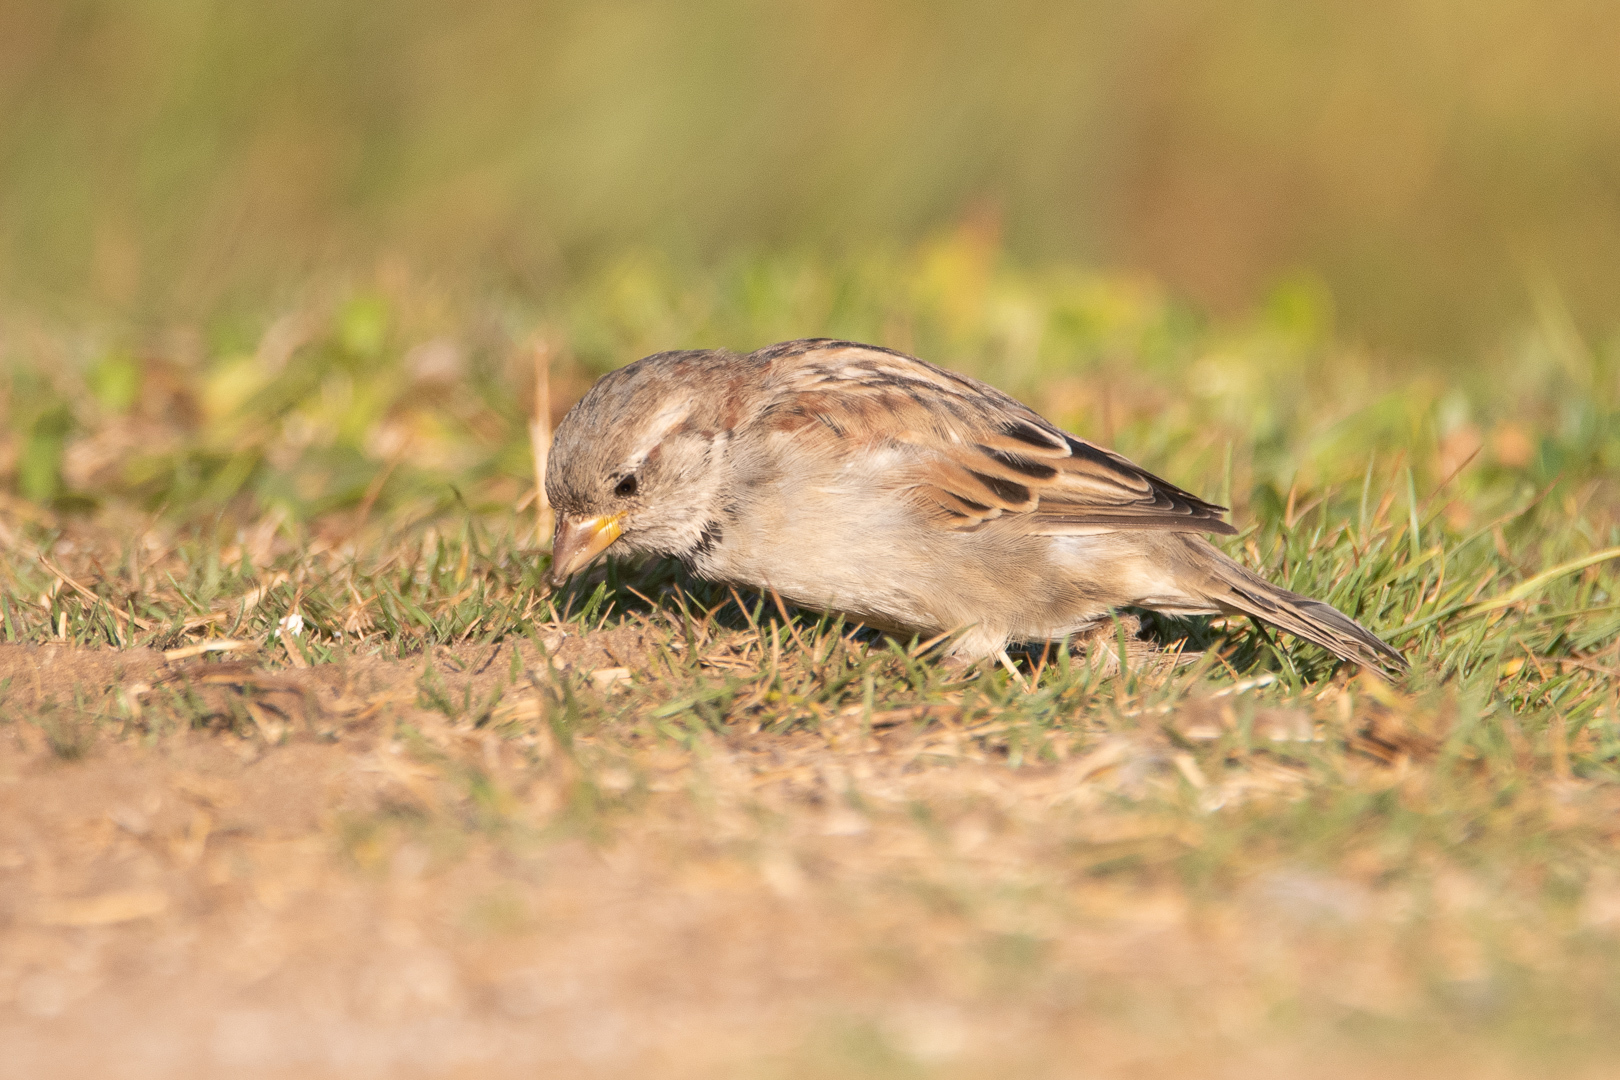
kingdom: Animalia
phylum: Chordata
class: Aves
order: Passeriformes
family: Passeridae
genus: Passer
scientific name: Passer domesticus
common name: House sparrow
